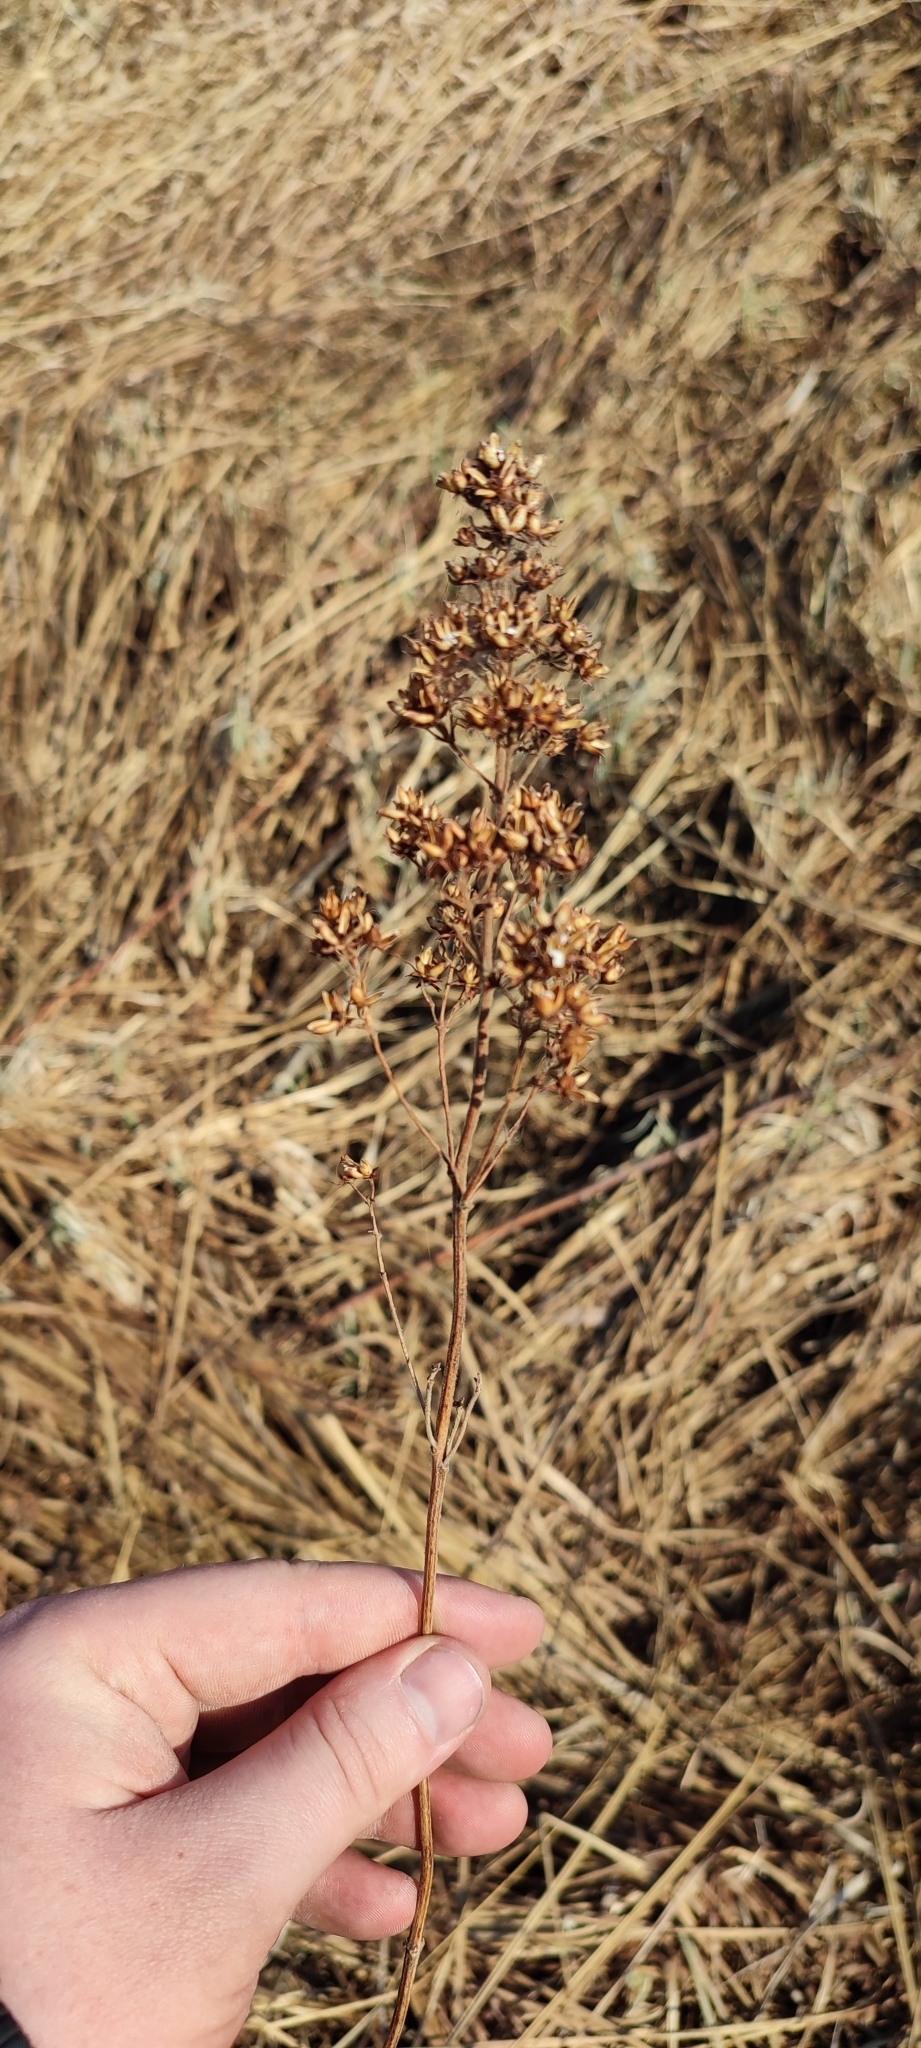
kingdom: Plantae
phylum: Tracheophyta
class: Magnoliopsida
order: Ericales
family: Primulaceae
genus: Lysimachia
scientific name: Lysimachia vulgaris
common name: Yellow loosestrife
